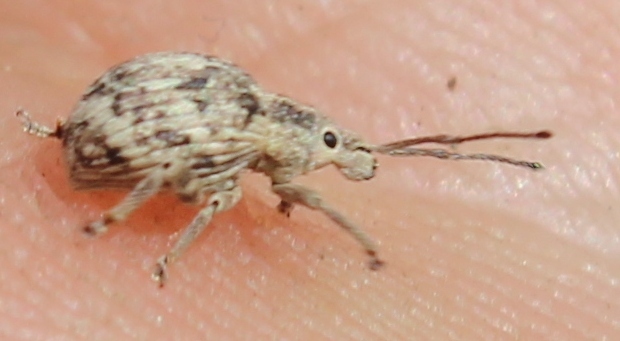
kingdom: Animalia
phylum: Arthropoda
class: Insecta
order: Coleoptera
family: Curculionidae
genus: Ellimenistes
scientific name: Ellimenistes laesicollis
